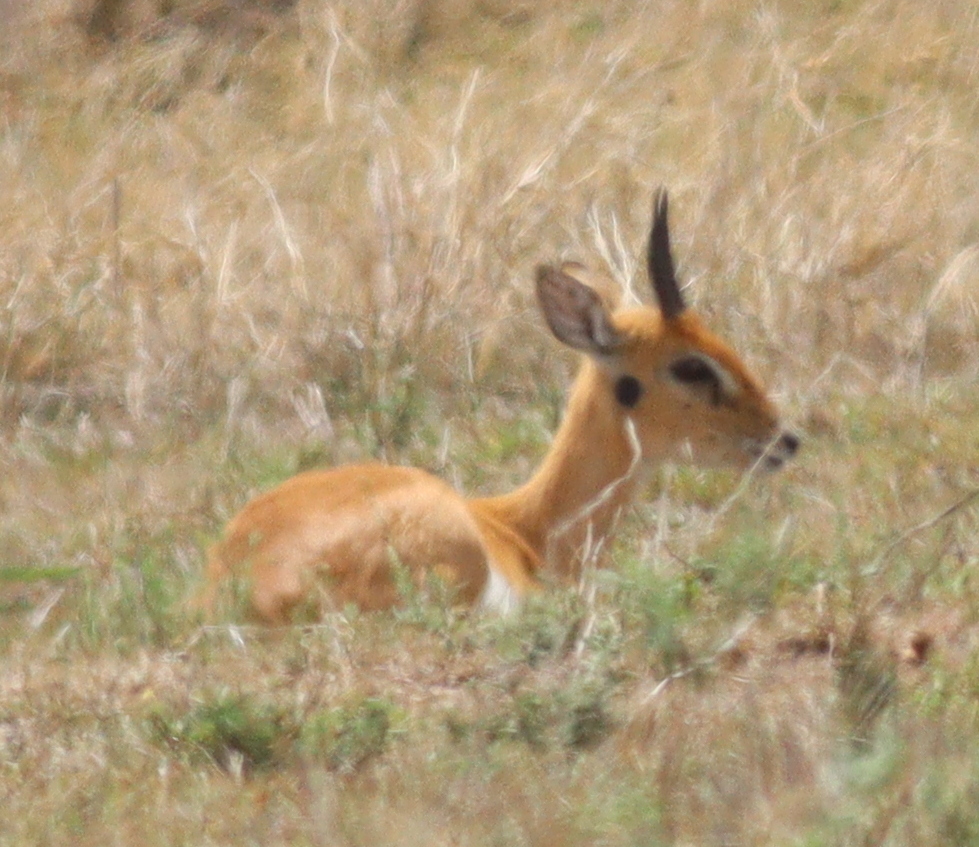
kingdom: Animalia
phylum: Chordata
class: Mammalia
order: Artiodactyla
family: Bovidae
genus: Ourebia
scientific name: Ourebia ourebi
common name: Oribi
